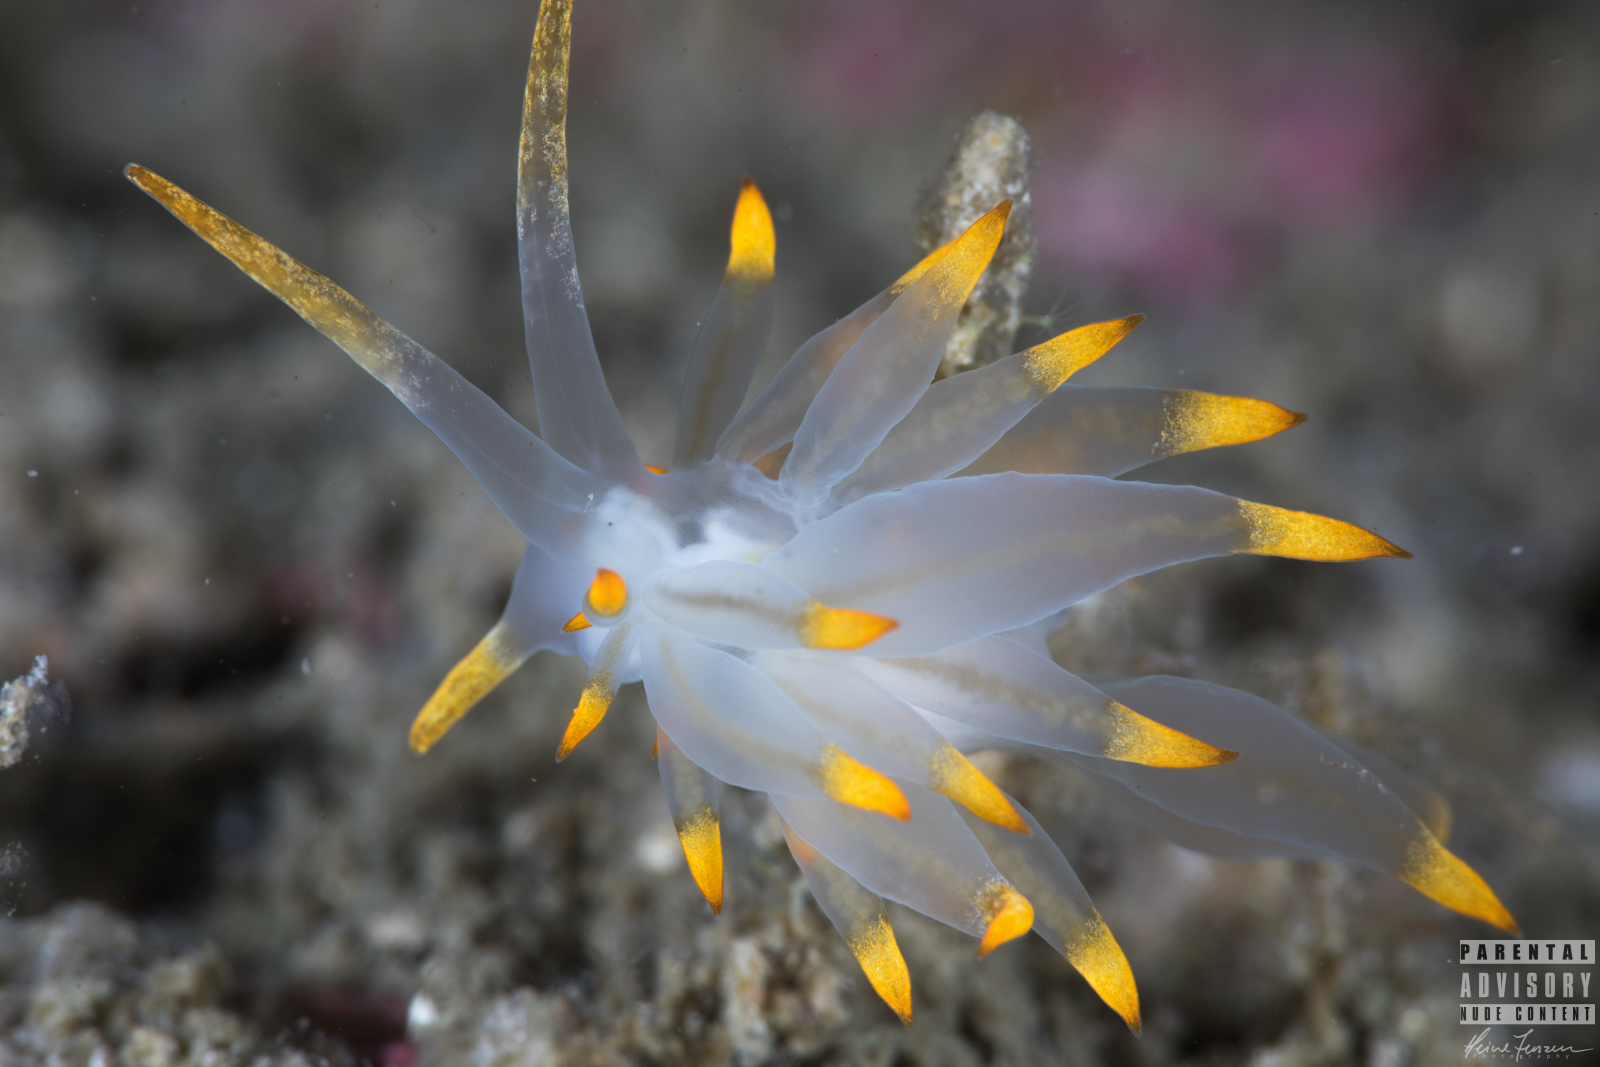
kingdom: Animalia
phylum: Mollusca
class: Gastropoda
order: Nudibranchia
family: Eubranchidae
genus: Amphorina
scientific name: Amphorina farrani
